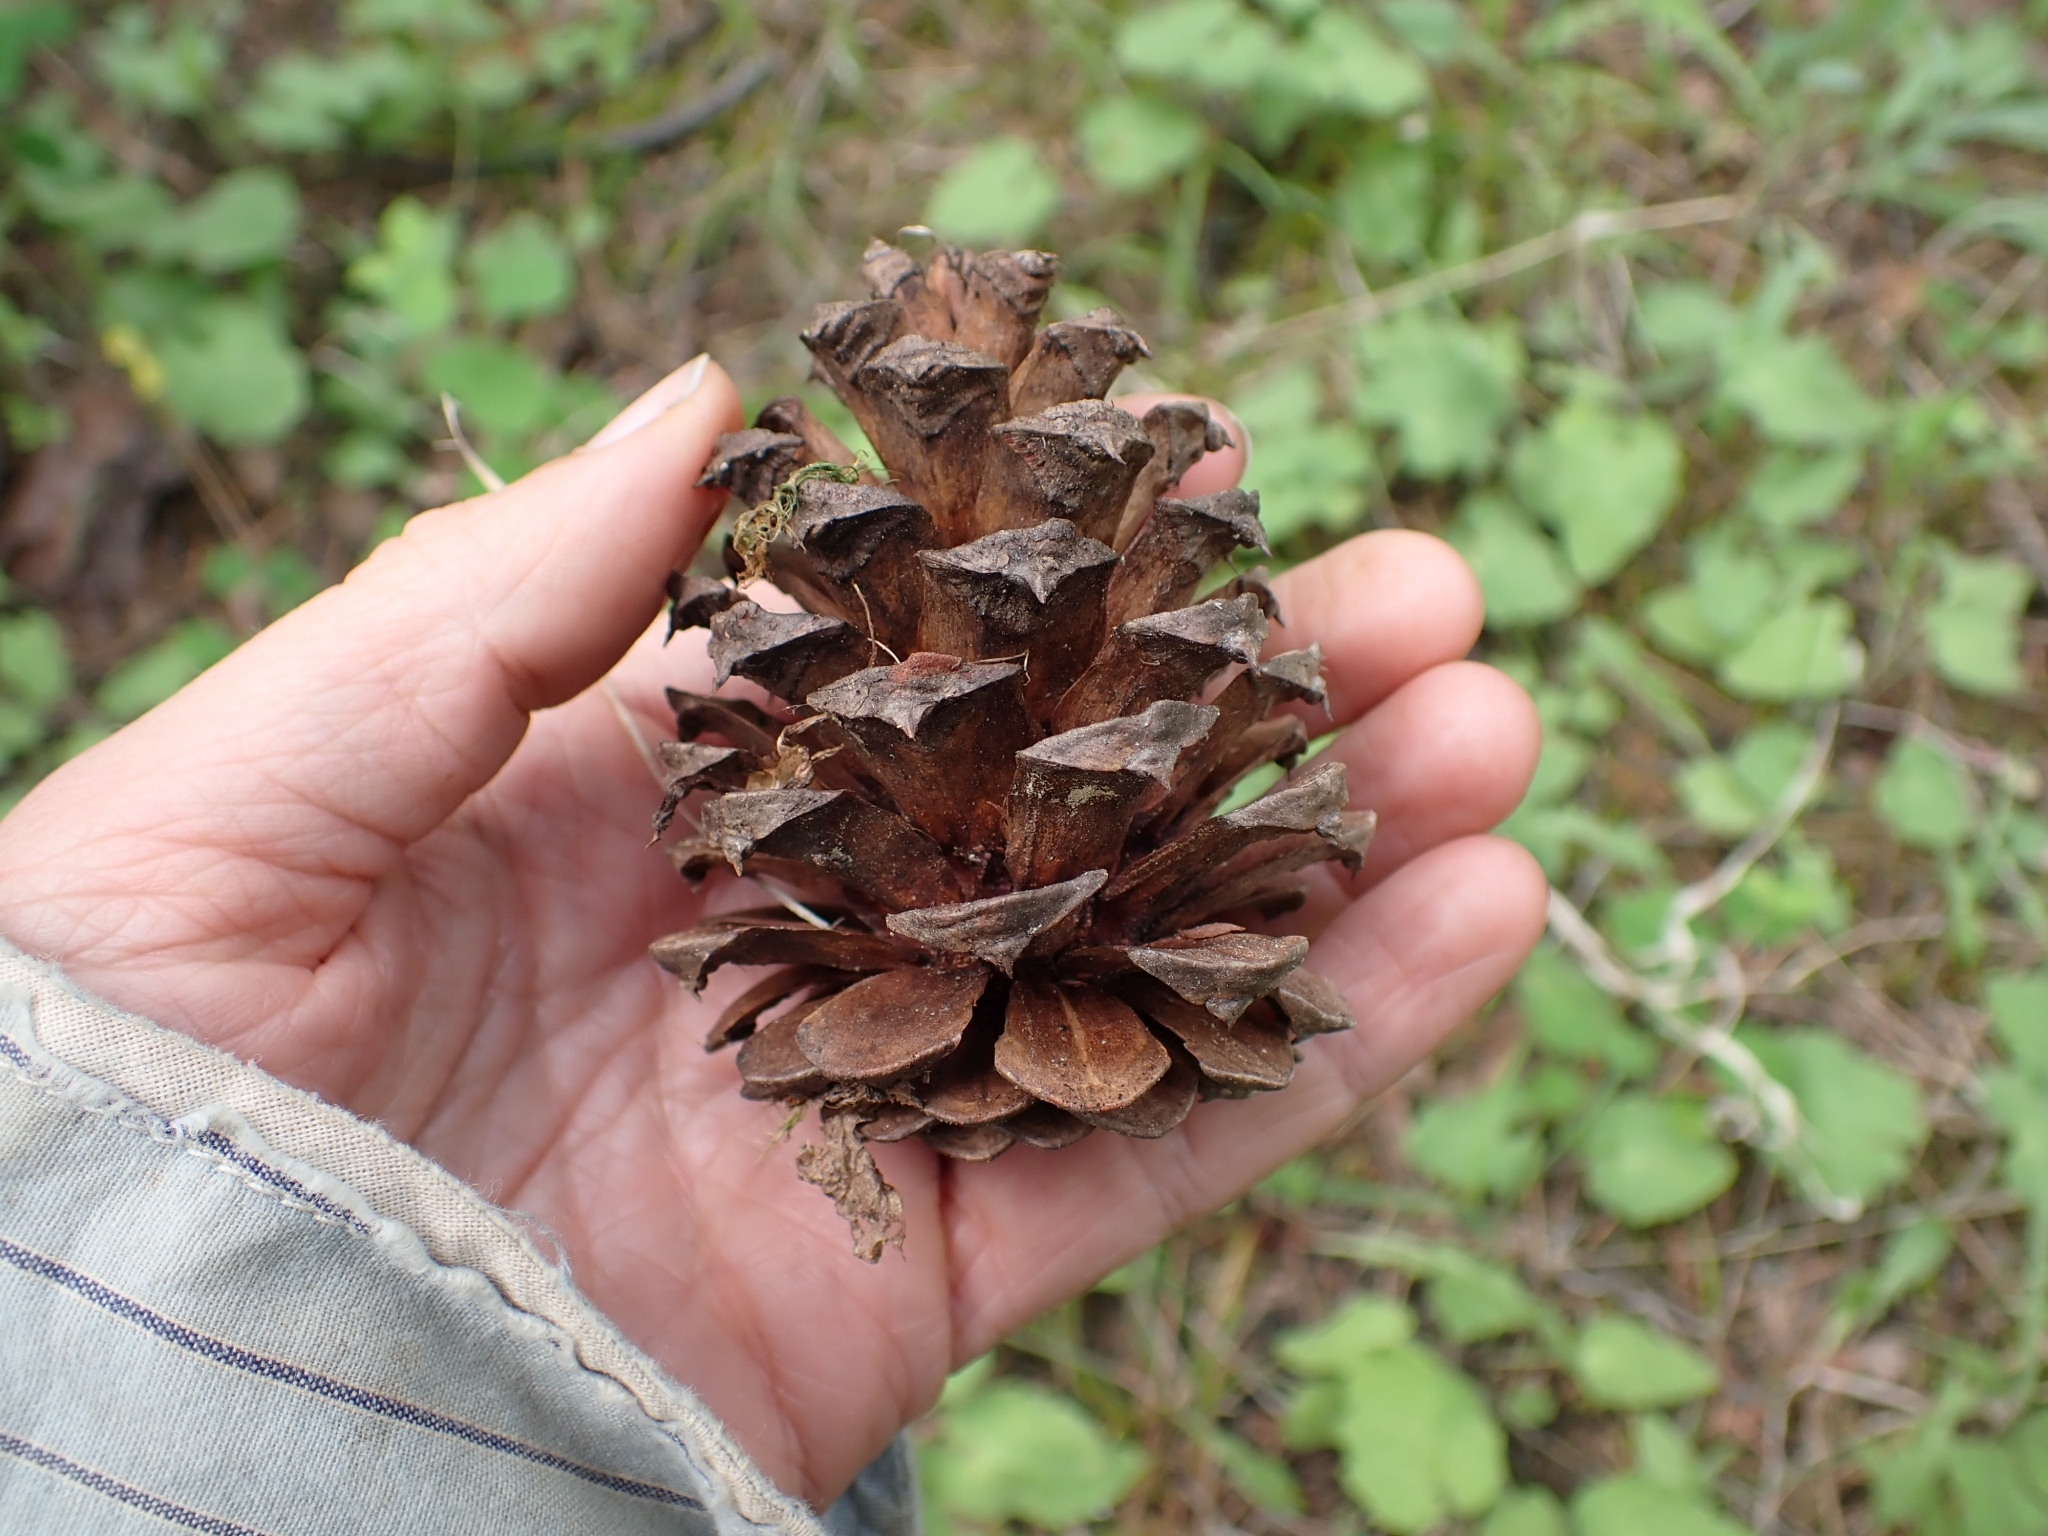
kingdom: Plantae
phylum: Tracheophyta
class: Pinopsida
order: Pinales
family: Pinaceae
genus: Pinus
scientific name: Pinus ponderosa
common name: Western yellow-pine
